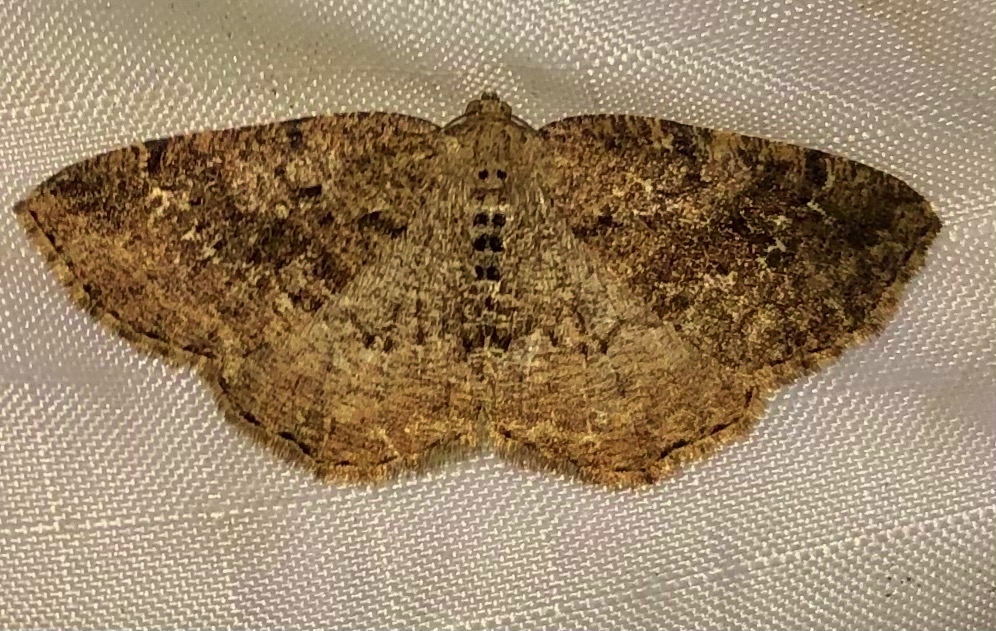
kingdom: Animalia
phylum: Arthropoda
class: Insecta
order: Lepidoptera
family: Geometridae
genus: Homochlodes
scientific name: Homochlodes fritillaria
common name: Pale homochlodes
